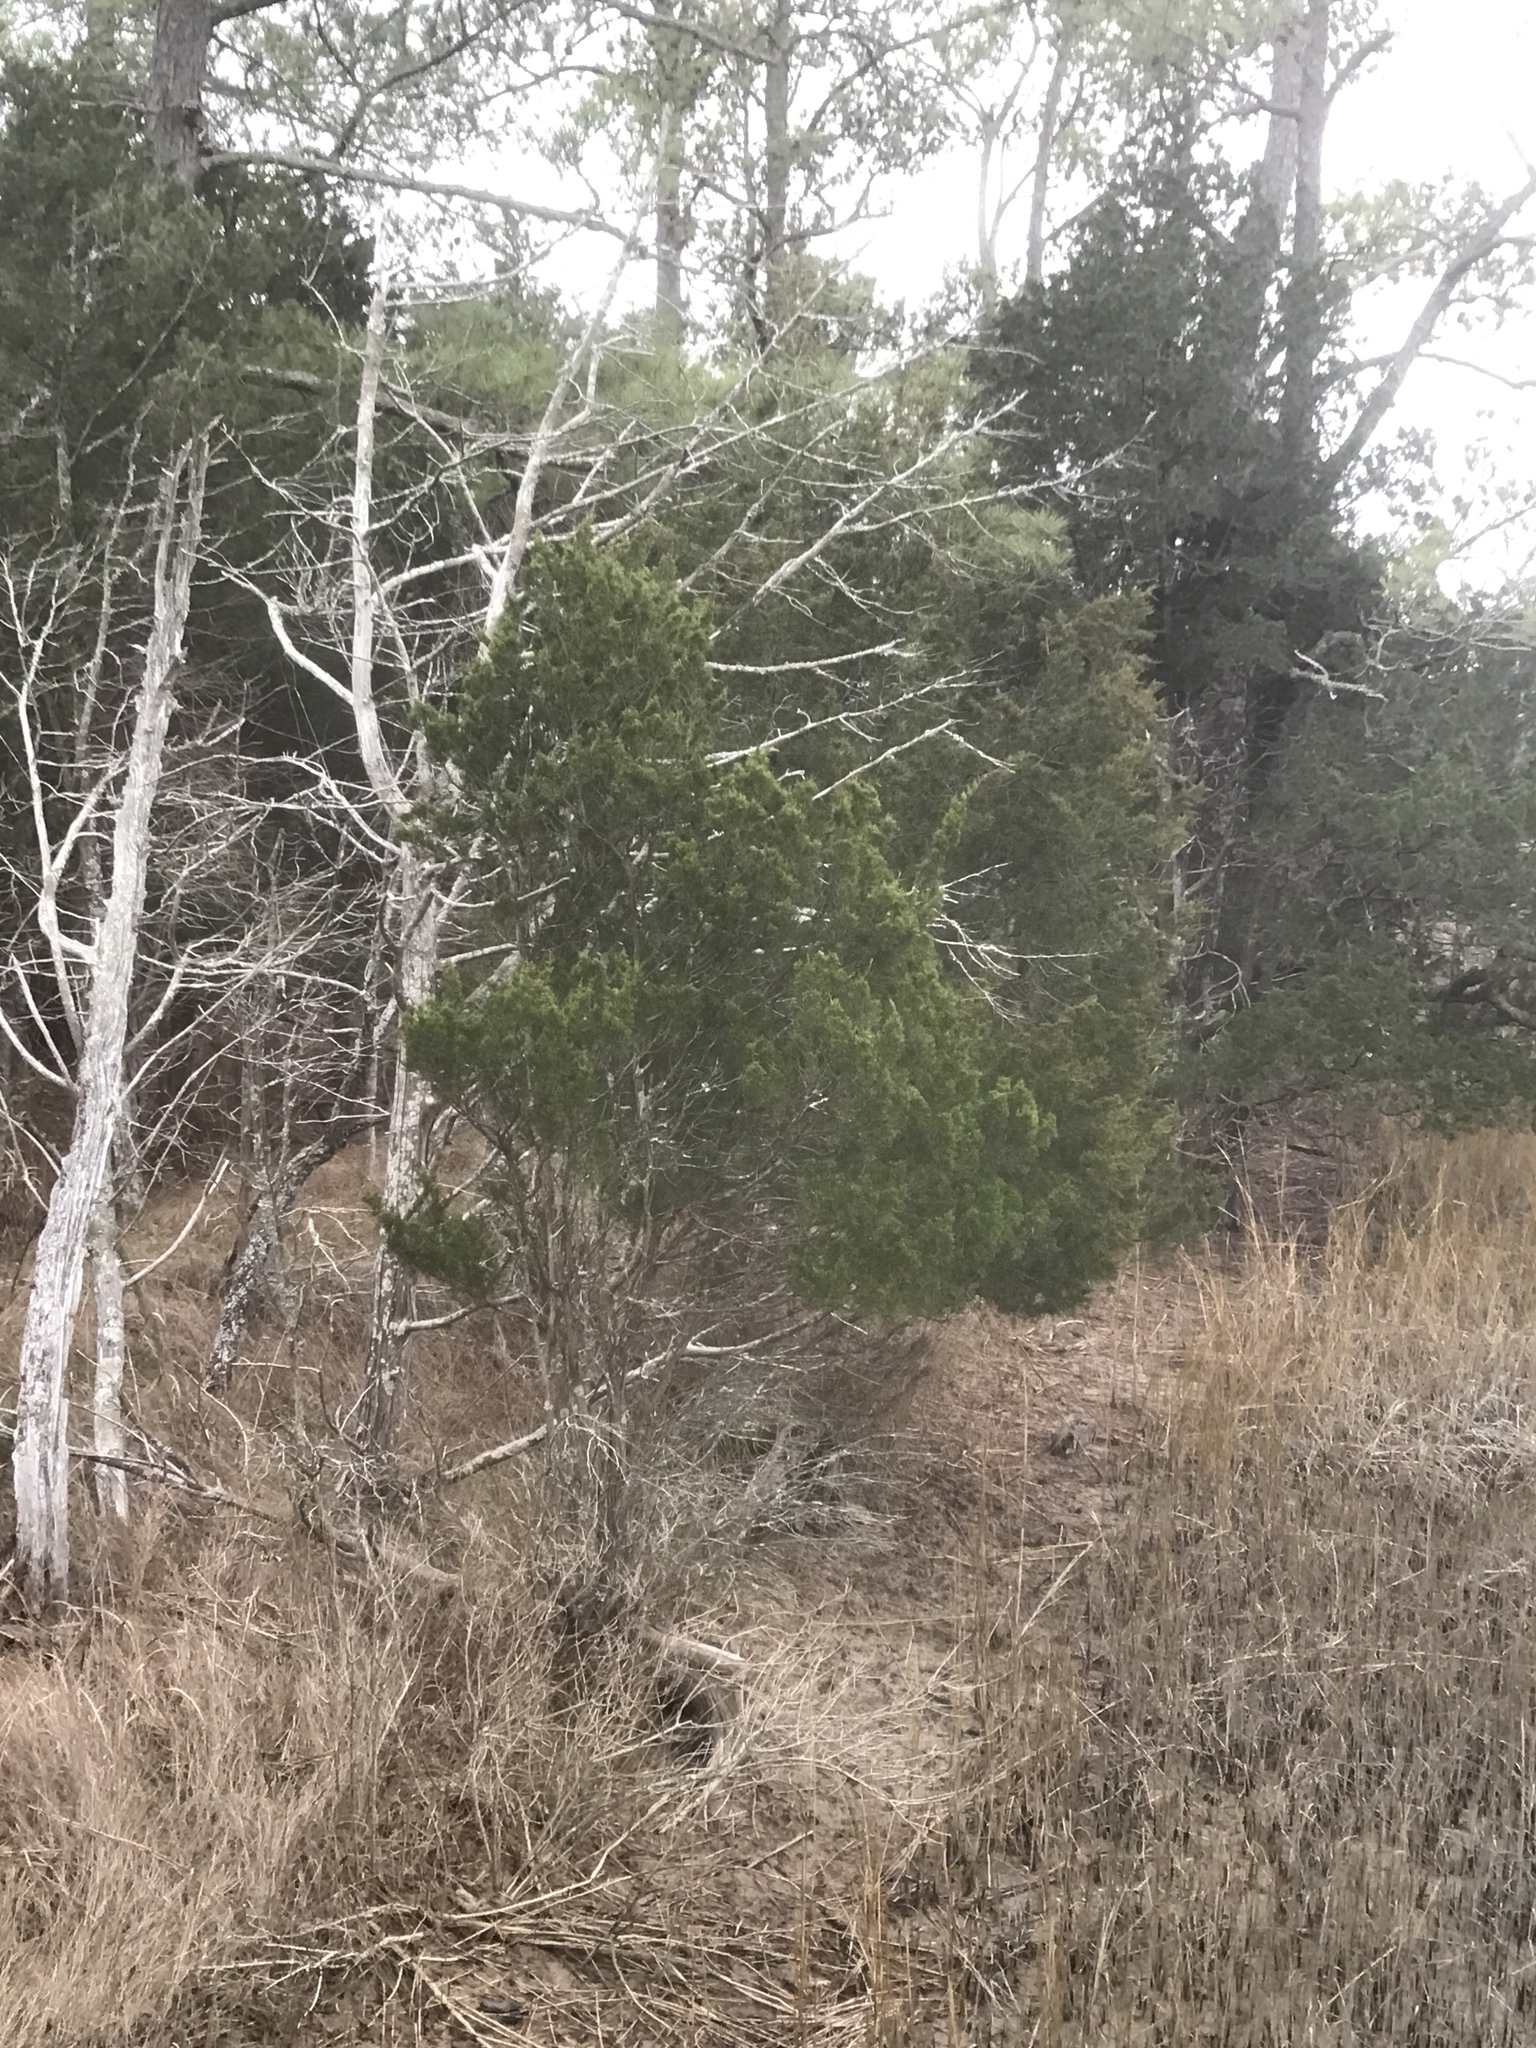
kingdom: Plantae
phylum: Tracheophyta
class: Pinopsida
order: Pinales
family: Cupressaceae
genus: Juniperus
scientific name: Juniperus virginiana
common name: Red juniper
